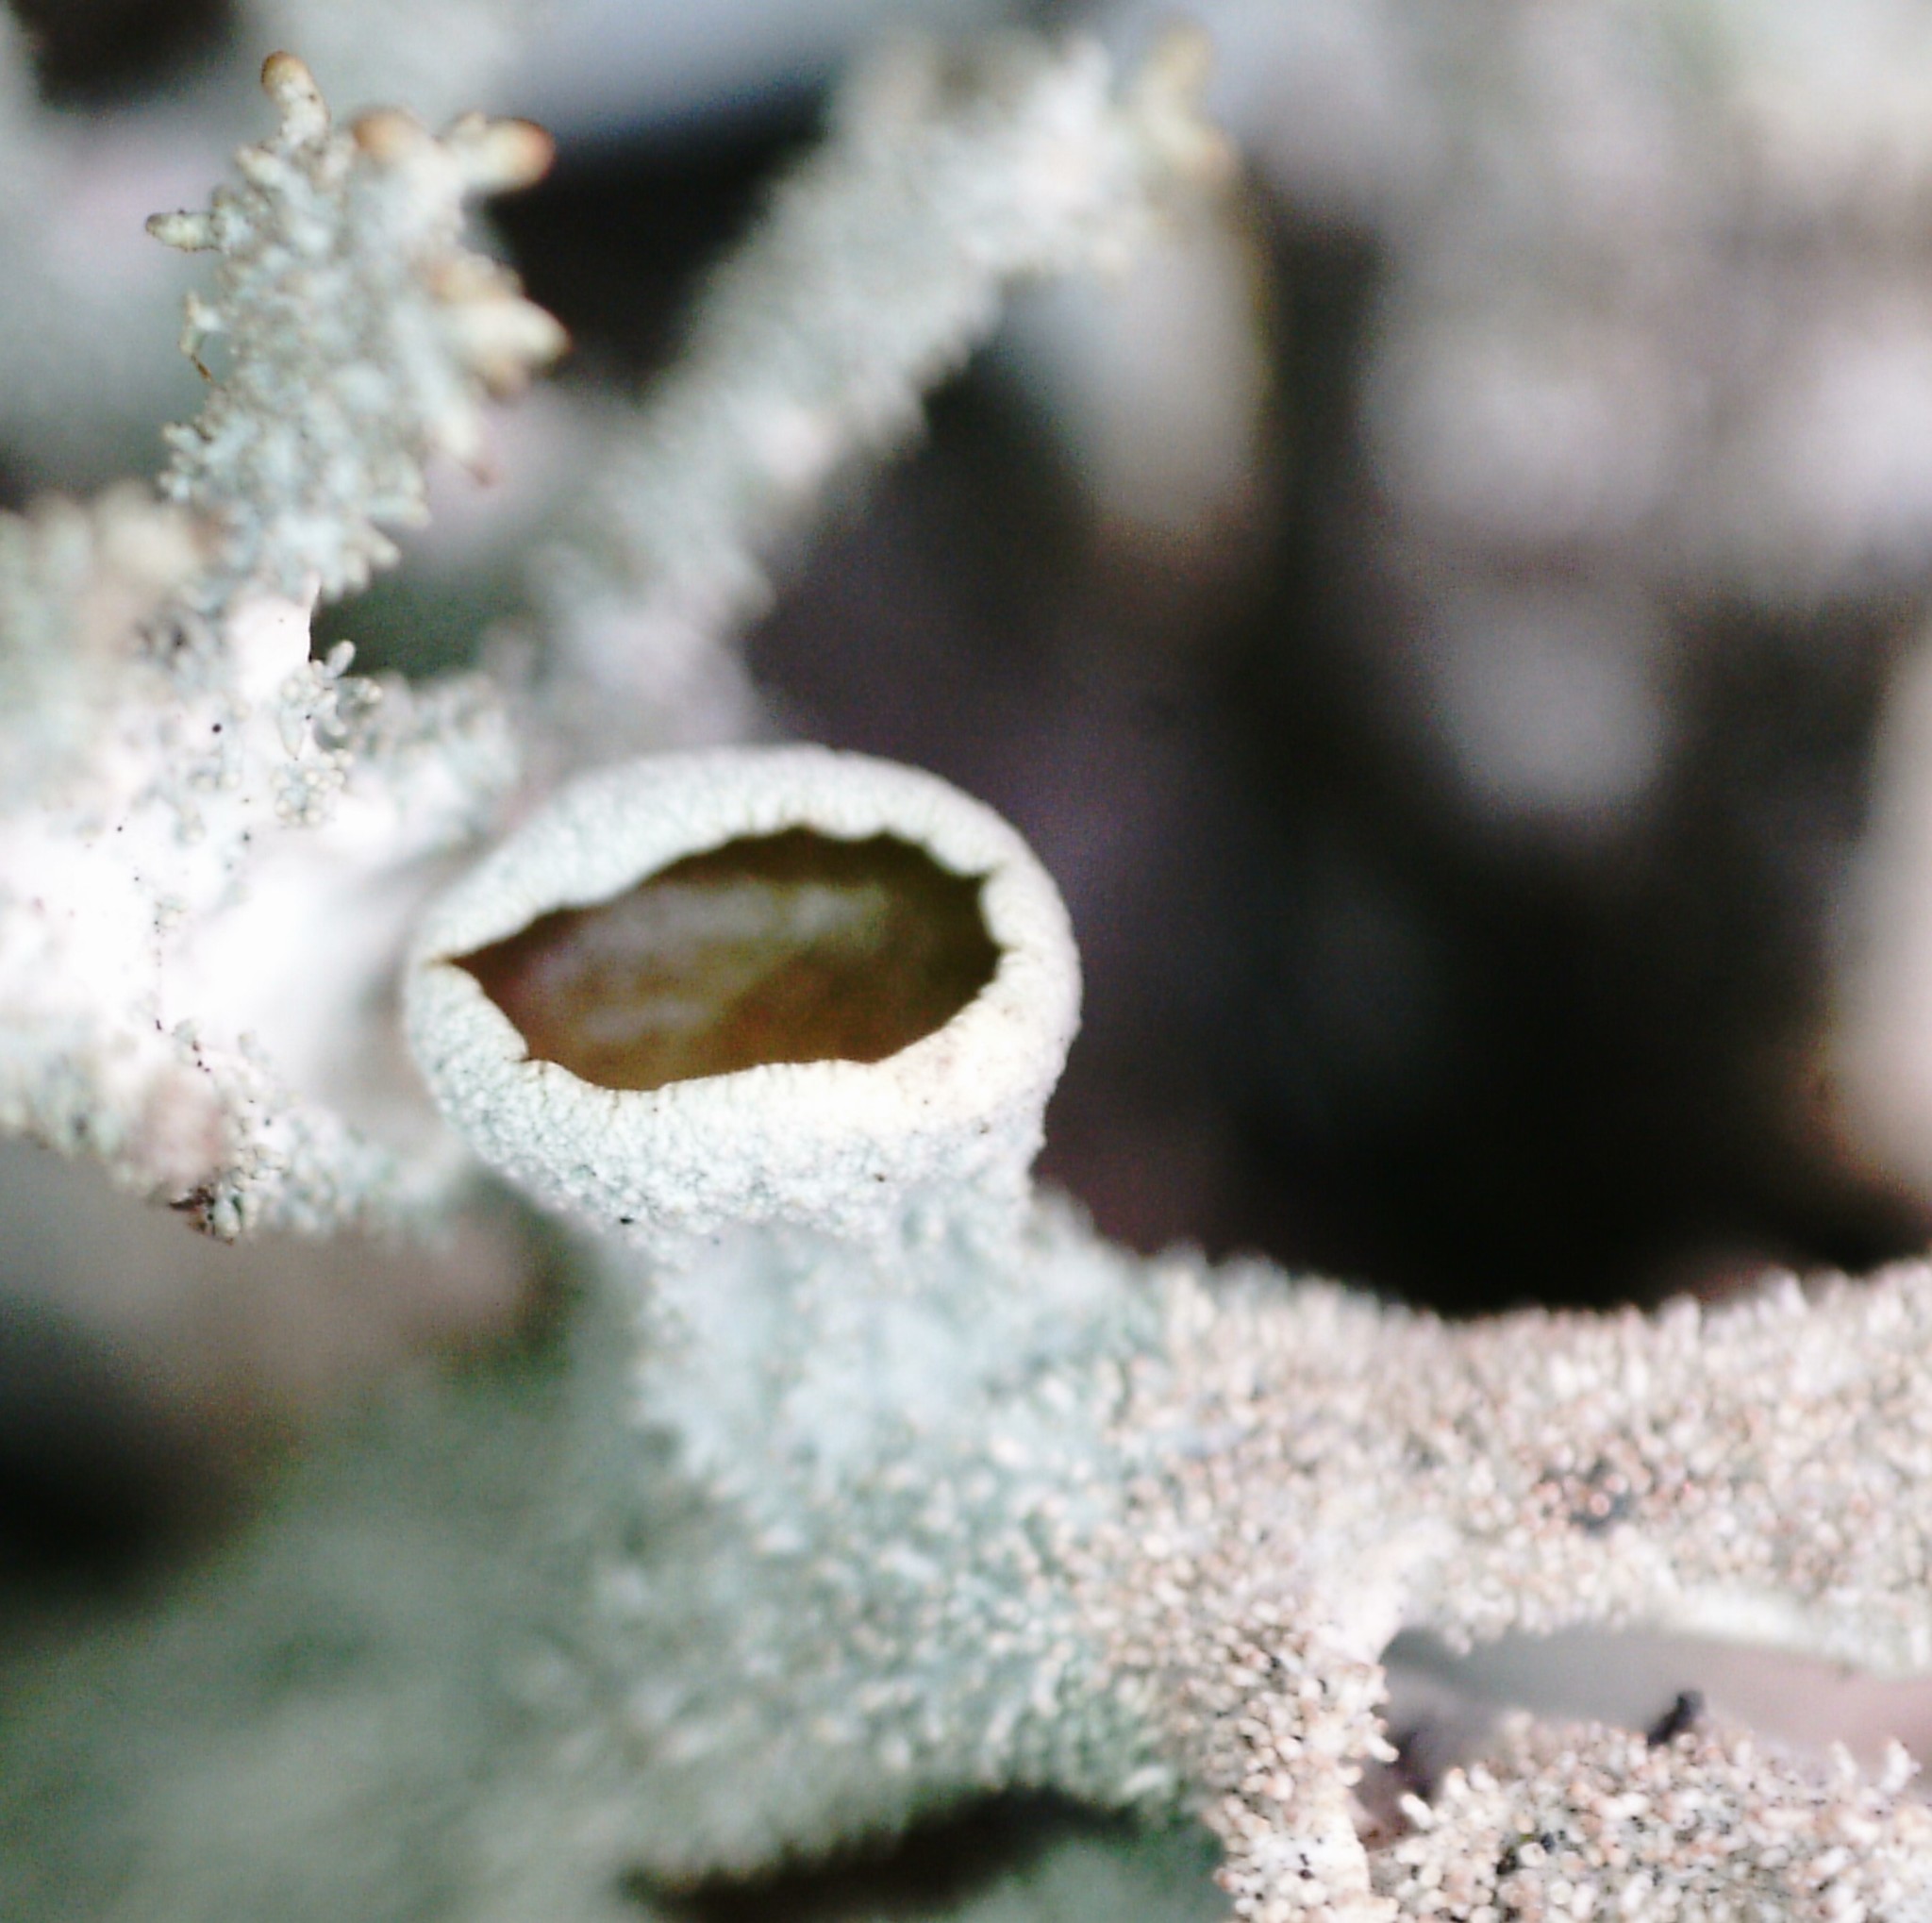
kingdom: Fungi
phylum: Ascomycota
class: Lecanoromycetes
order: Lecanorales
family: Parmeliaceae
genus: Pseudevernia
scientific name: Pseudevernia furfuracea
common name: Tree moss
